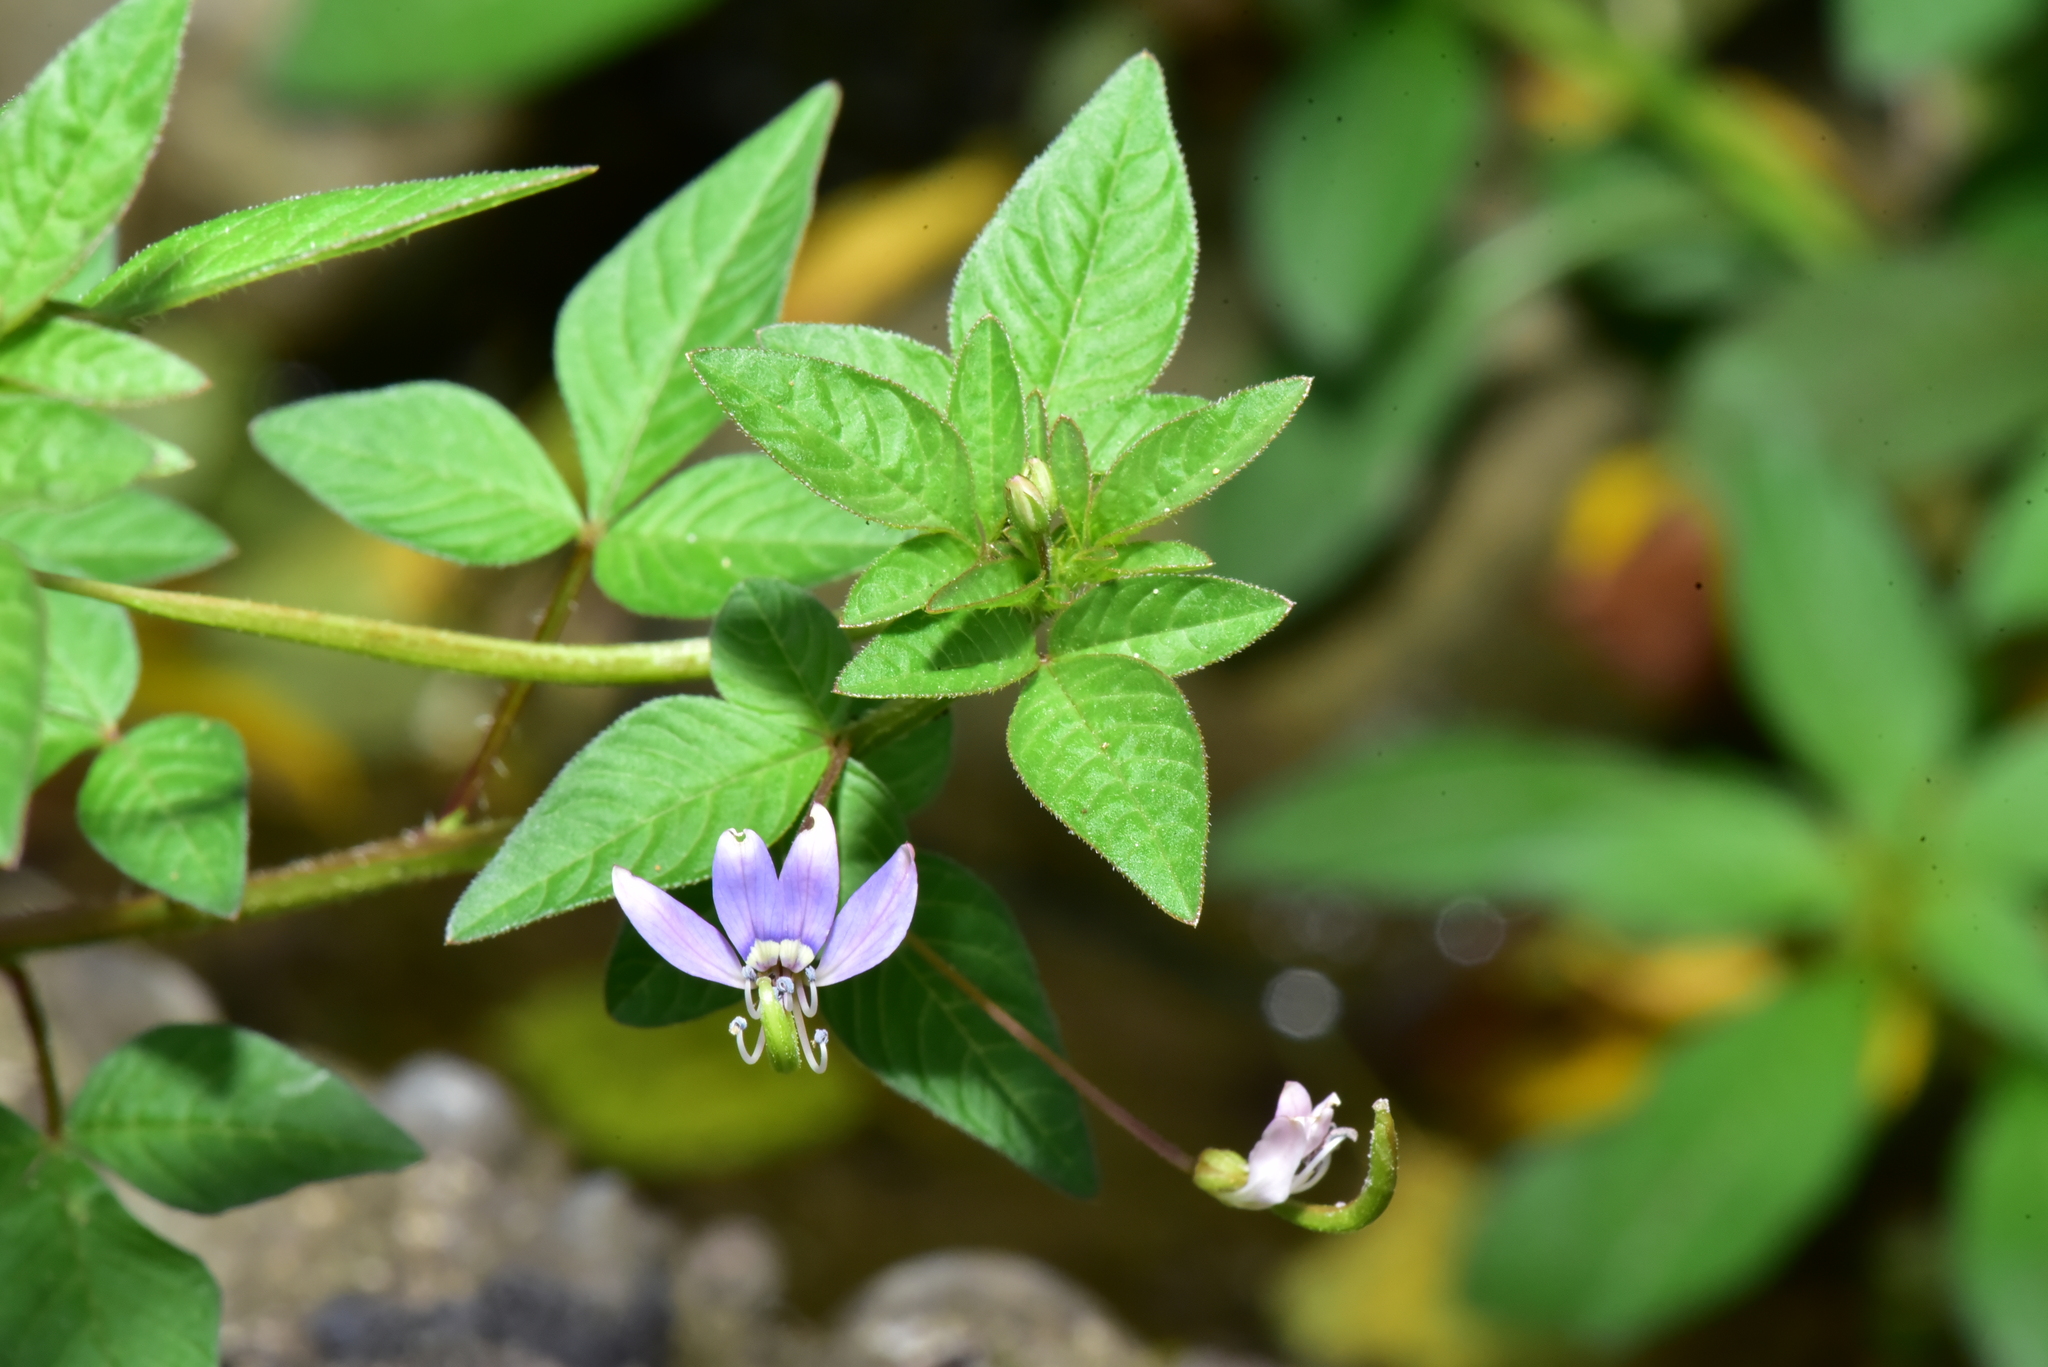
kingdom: Plantae
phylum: Tracheophyta
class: Magnoliopsida
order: Brassicales
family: Cleomaceae
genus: Sieruela
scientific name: Sieruela rutidosperma
